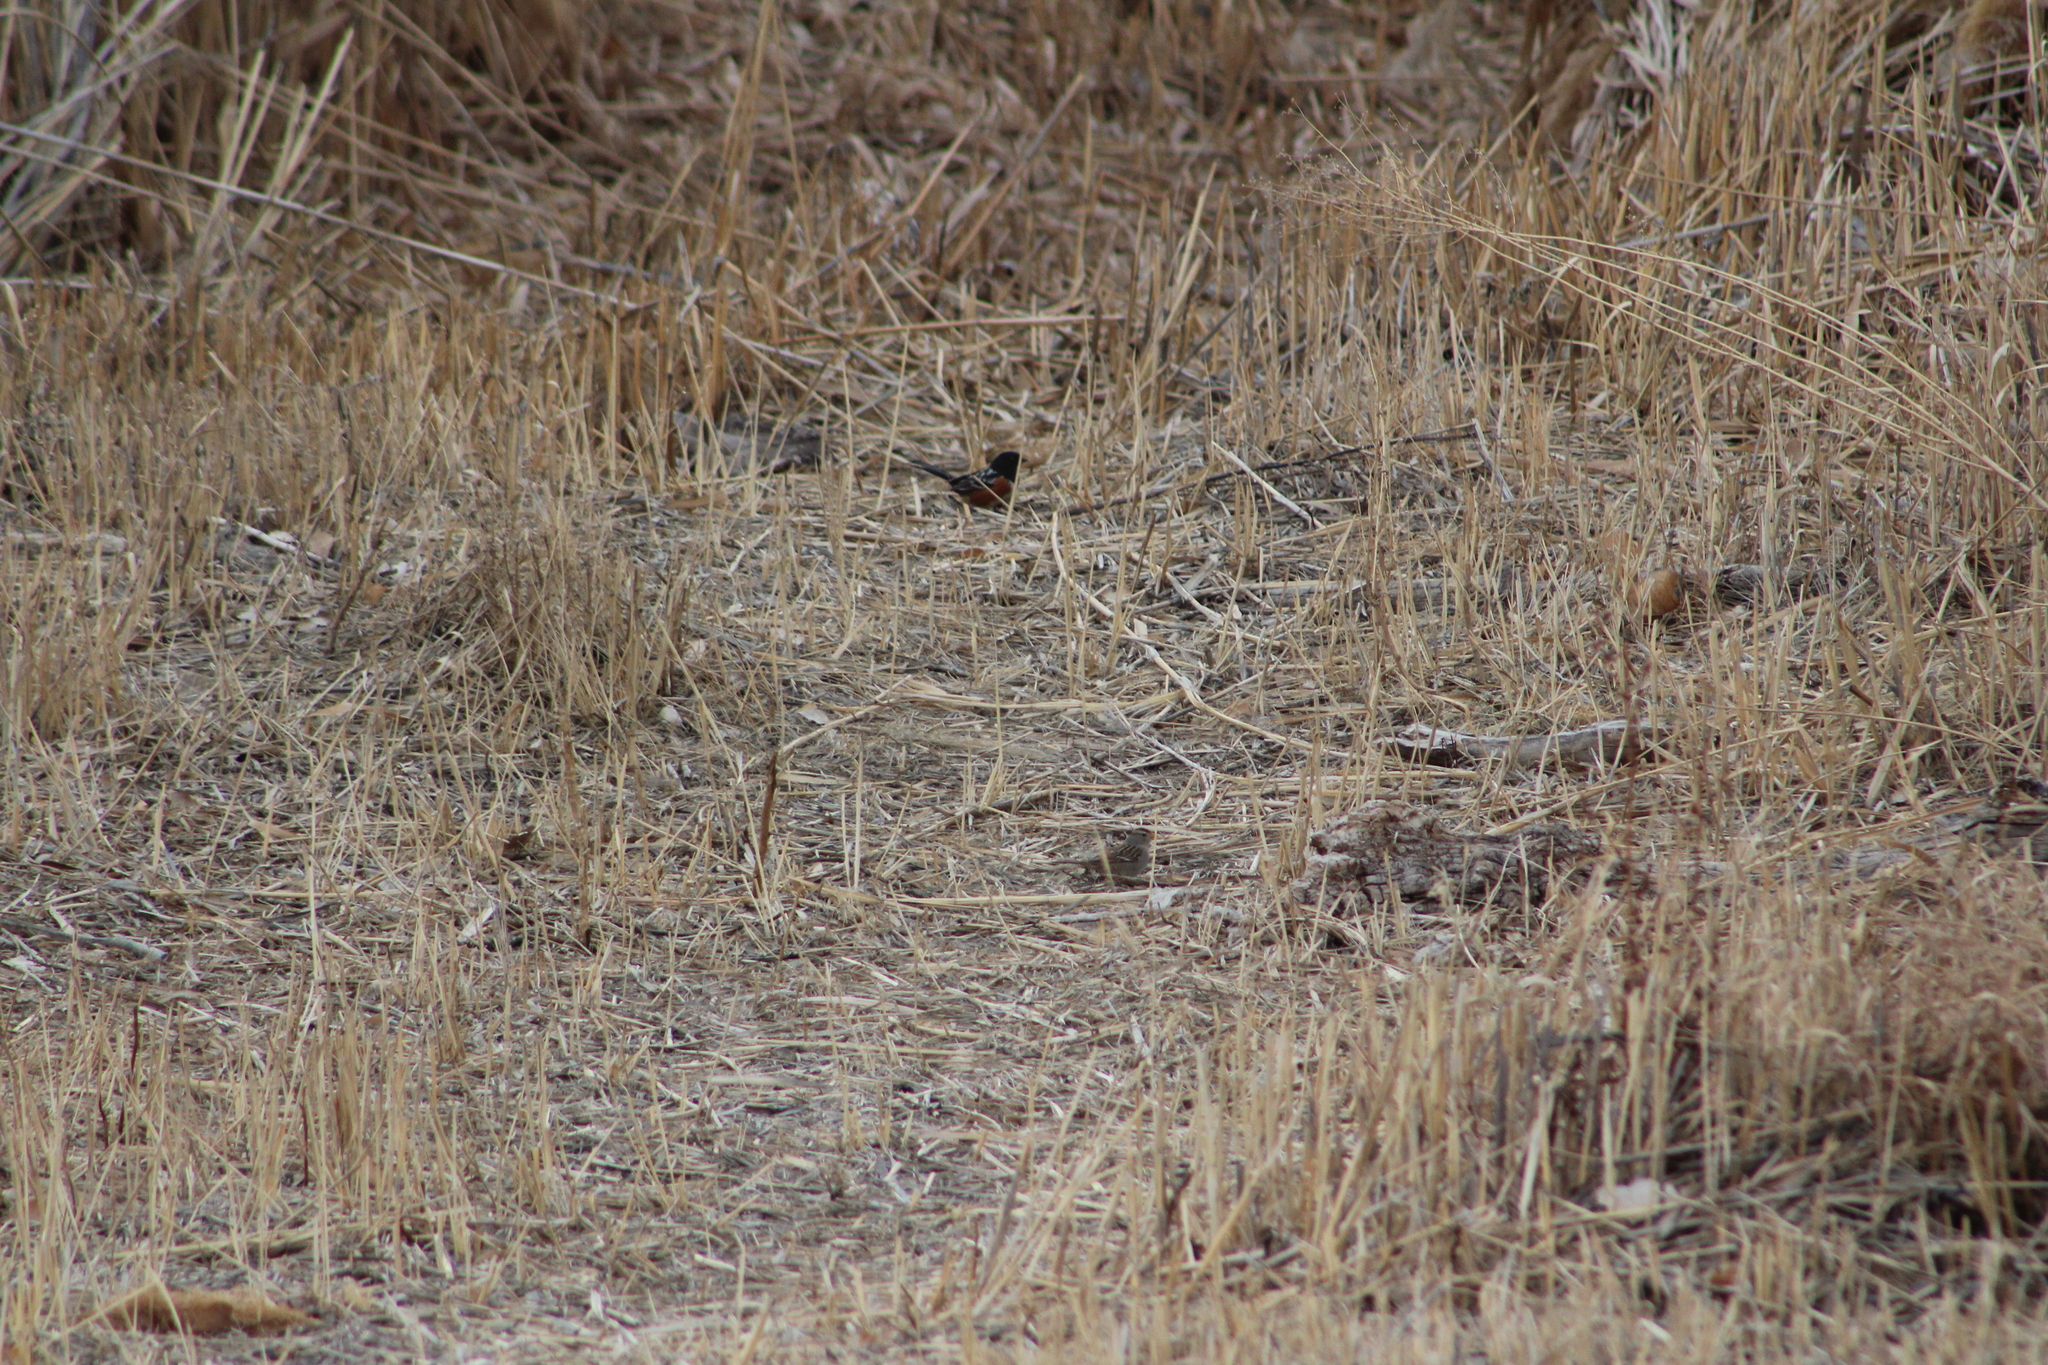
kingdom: Animalia
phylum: Chordata
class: Aves
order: Passeriformes
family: Passerellidae
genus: Pipilo
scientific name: Pipilo maculatus
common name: Spotted towhee
